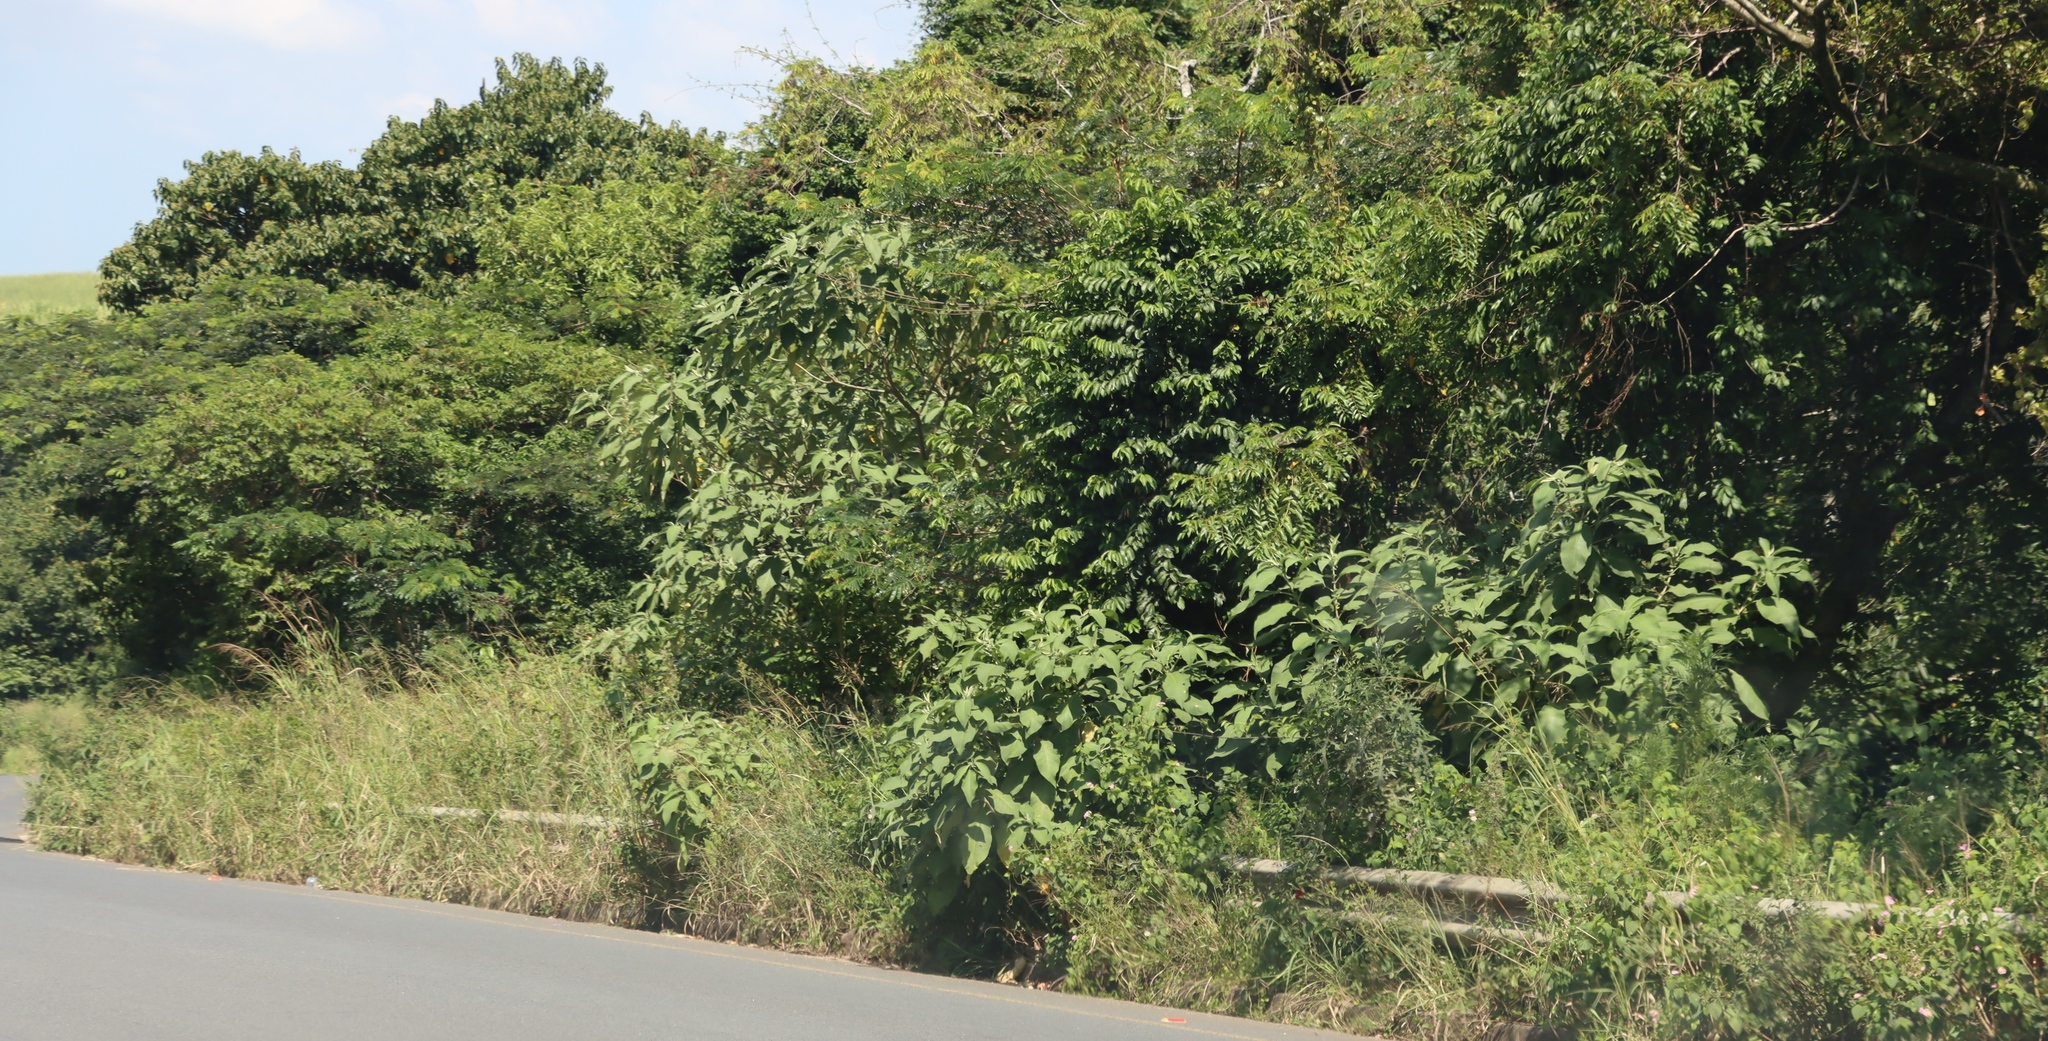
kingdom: Plantae
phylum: Tracheophyta
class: Magnoliopsida
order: Solanales
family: Solanaceae
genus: Solanum
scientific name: Solanum mauritianum
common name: Earleaf nightshade
